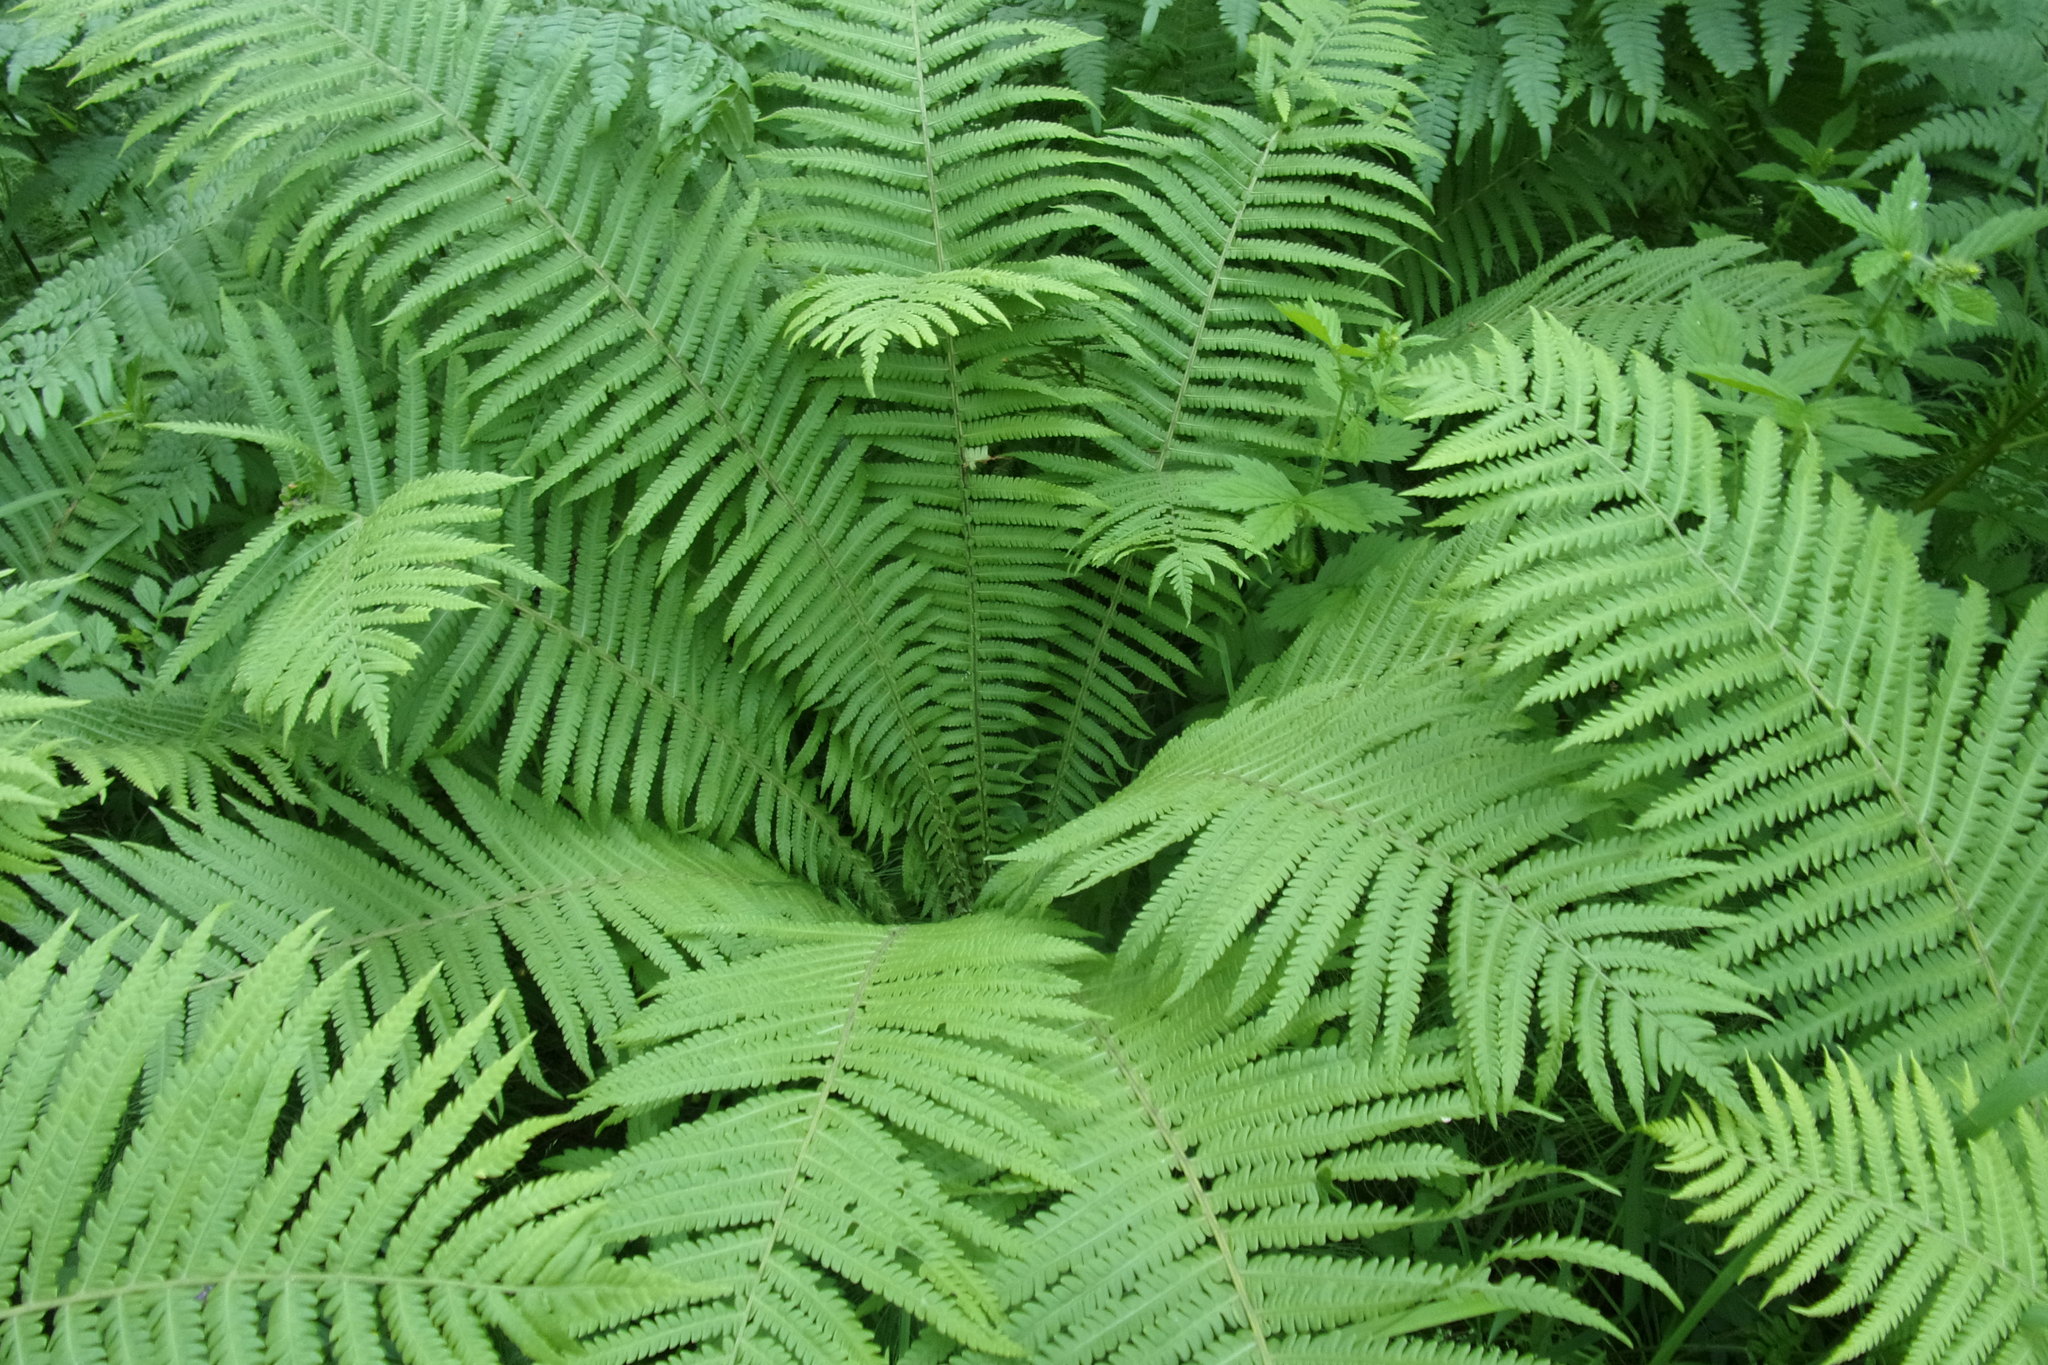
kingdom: Plantae
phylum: Tracheophyta
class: Polypodiopsida
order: Polypodiales
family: Onocleaceae
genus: Matteuccia
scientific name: Matteuccia struthiopteris
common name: Ostrich fern
